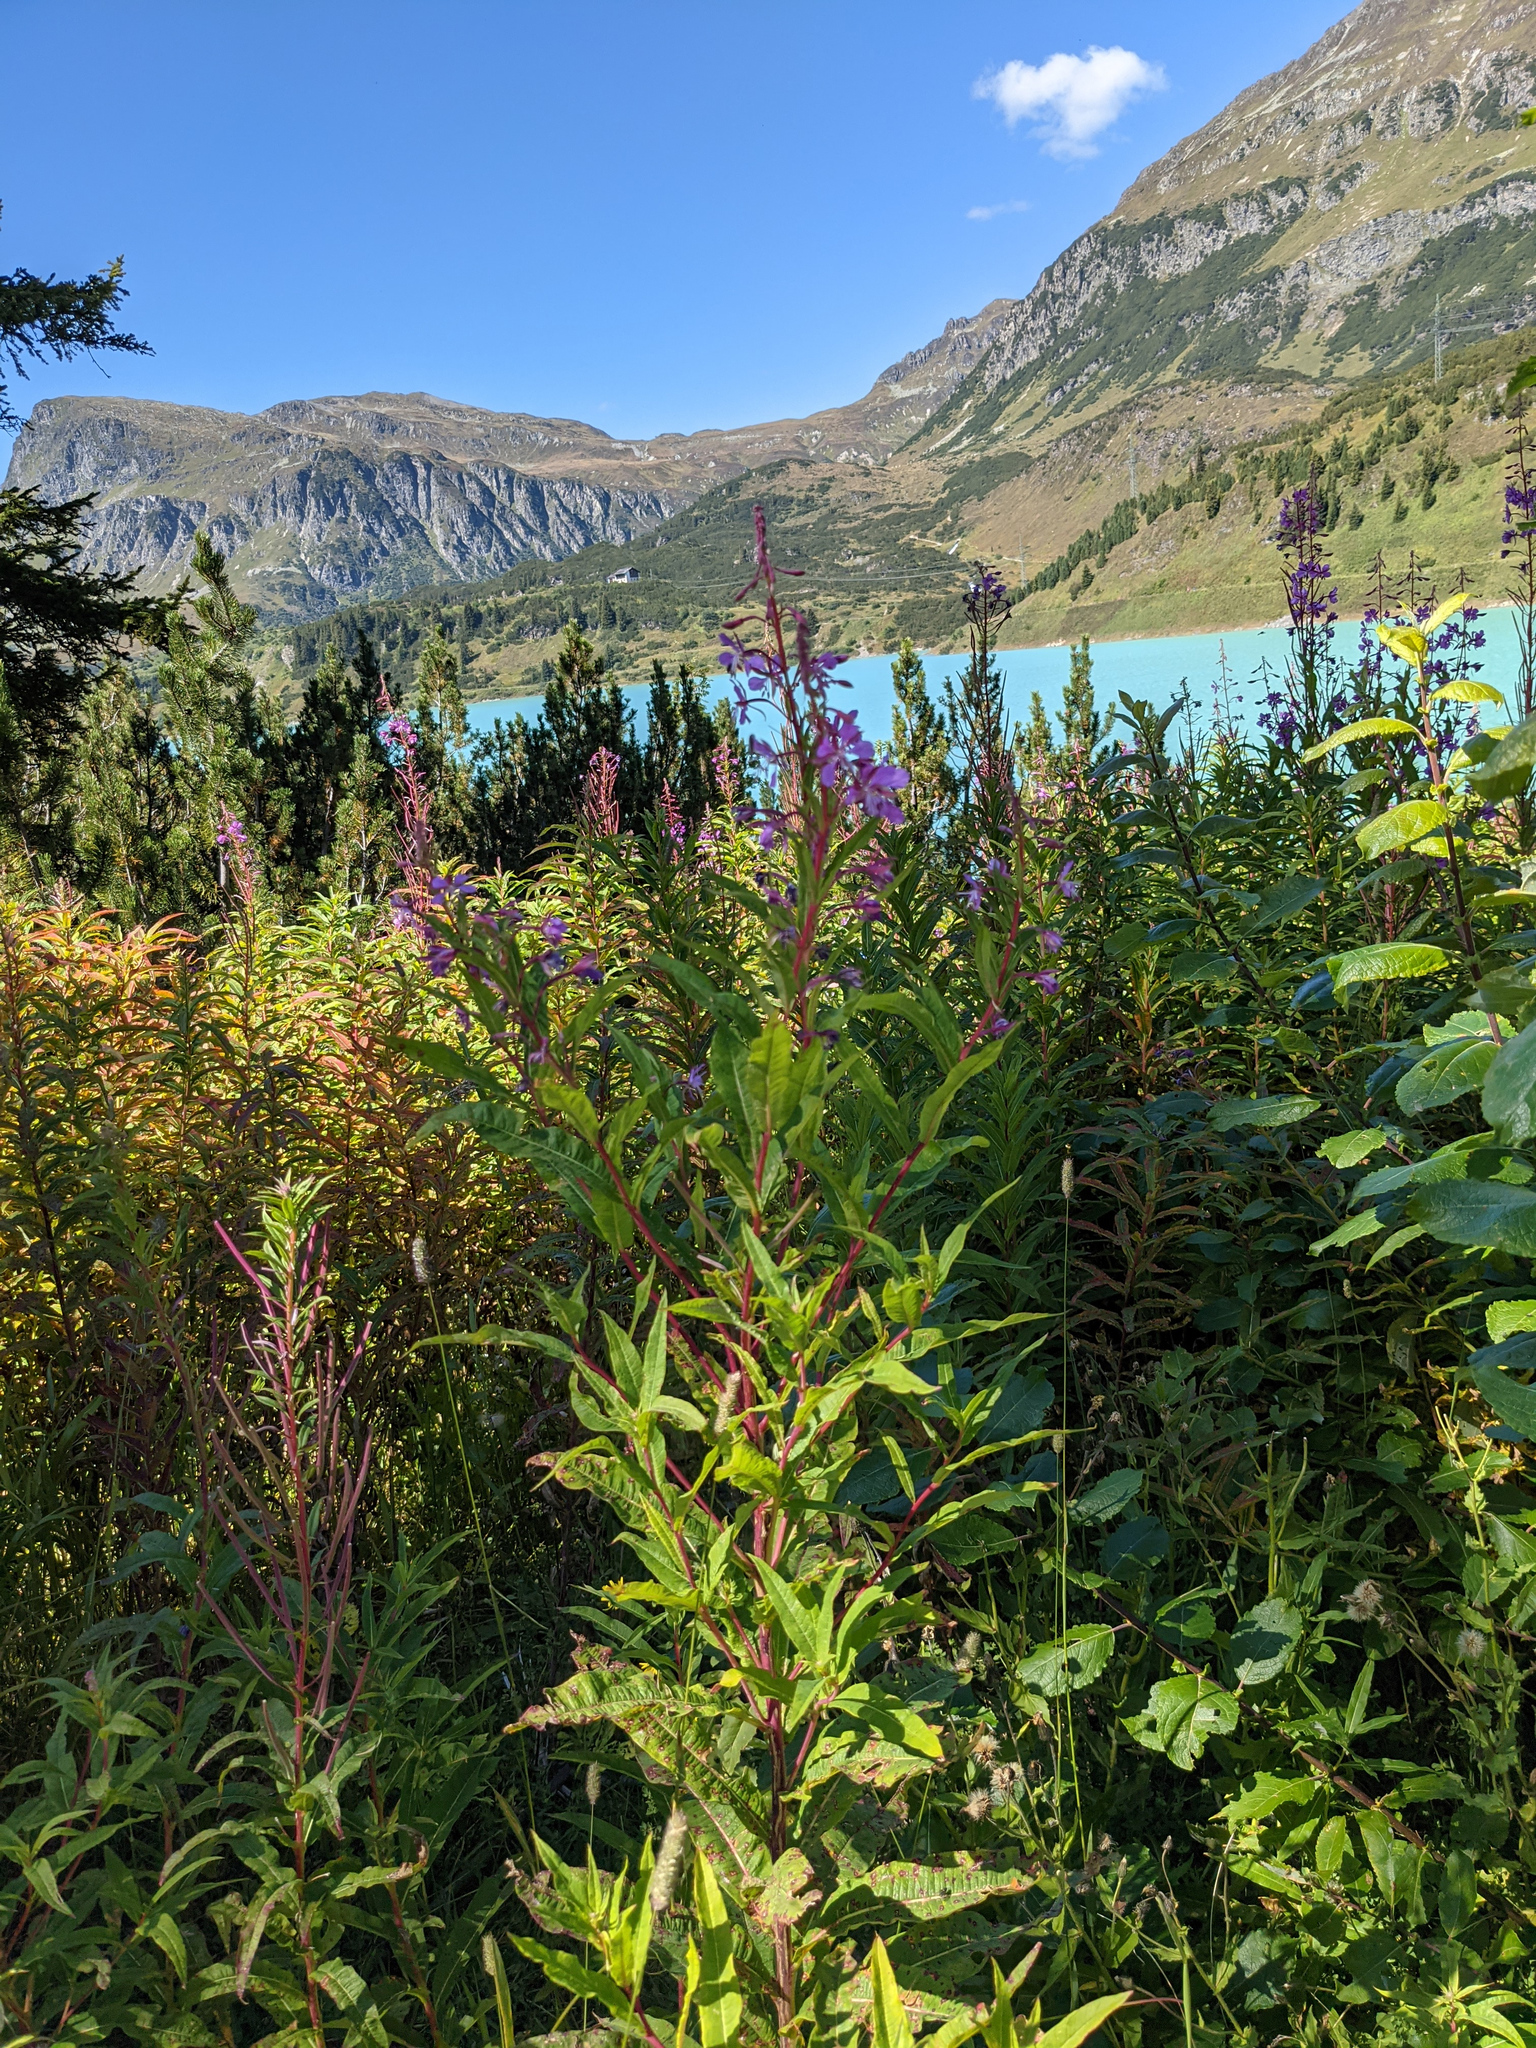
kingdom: Plantae
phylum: Tracheophyta
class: Magnoliopsida
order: Myrtales
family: Onagraceae
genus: Chamaenerion
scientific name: Chamaenerion angustifolium
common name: Fireweed
